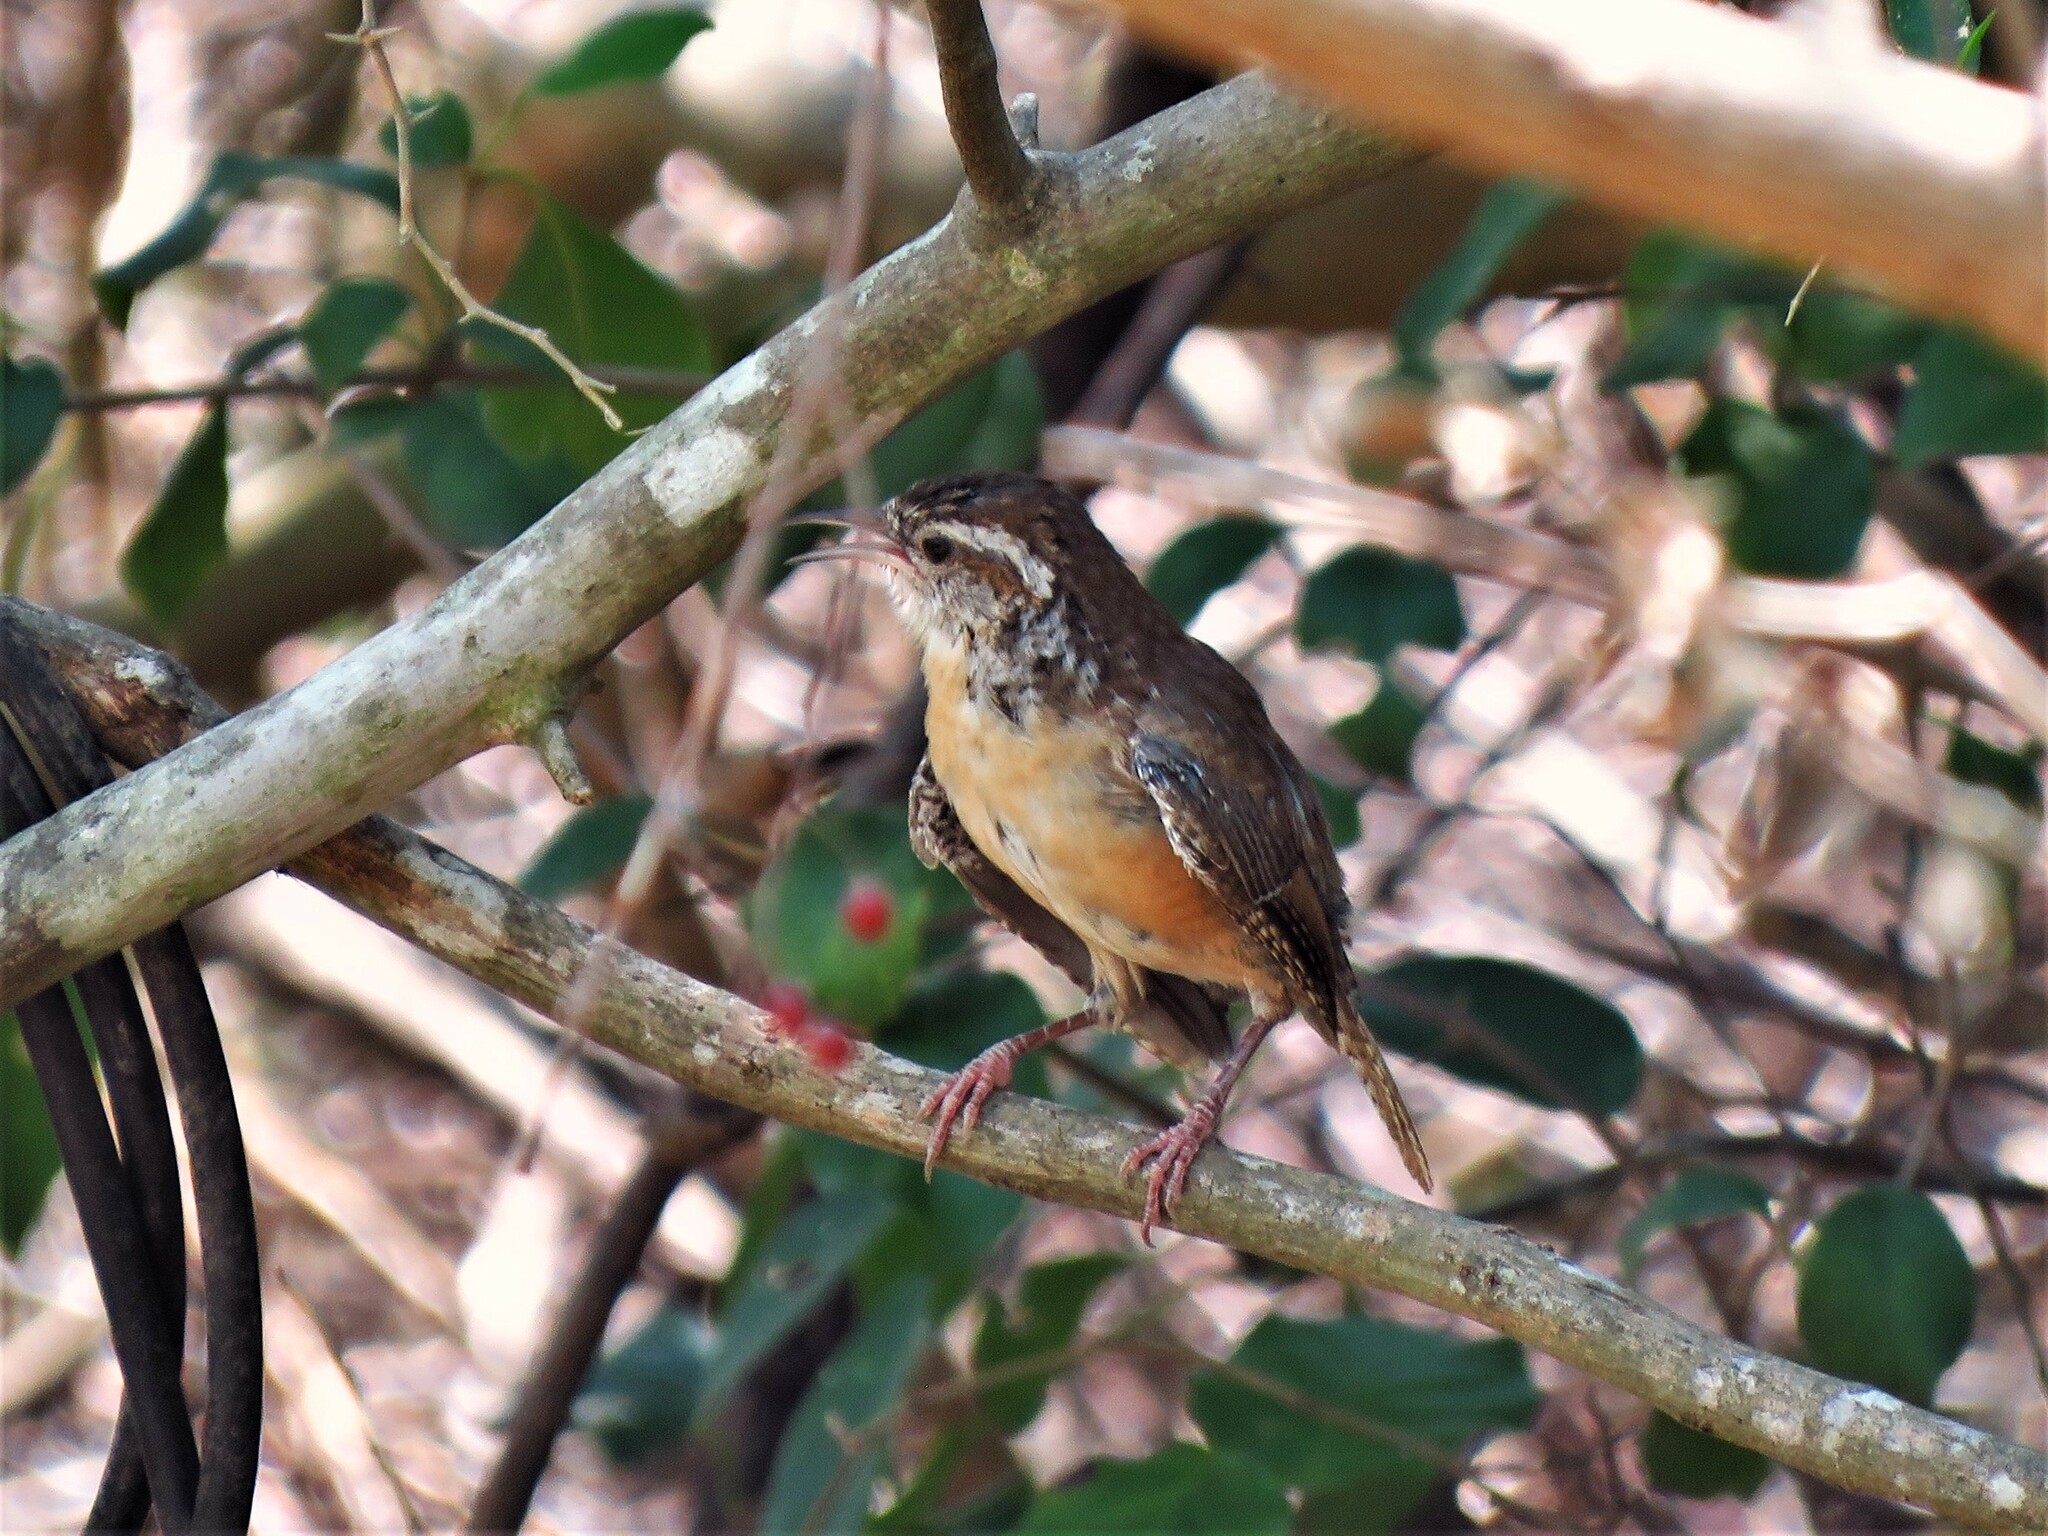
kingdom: Animalia
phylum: Chordata
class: Aves
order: Passeriformes
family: Troglodytidae
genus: Thryothorus
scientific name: Thryothorus ludovicianus
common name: Carolina wren
